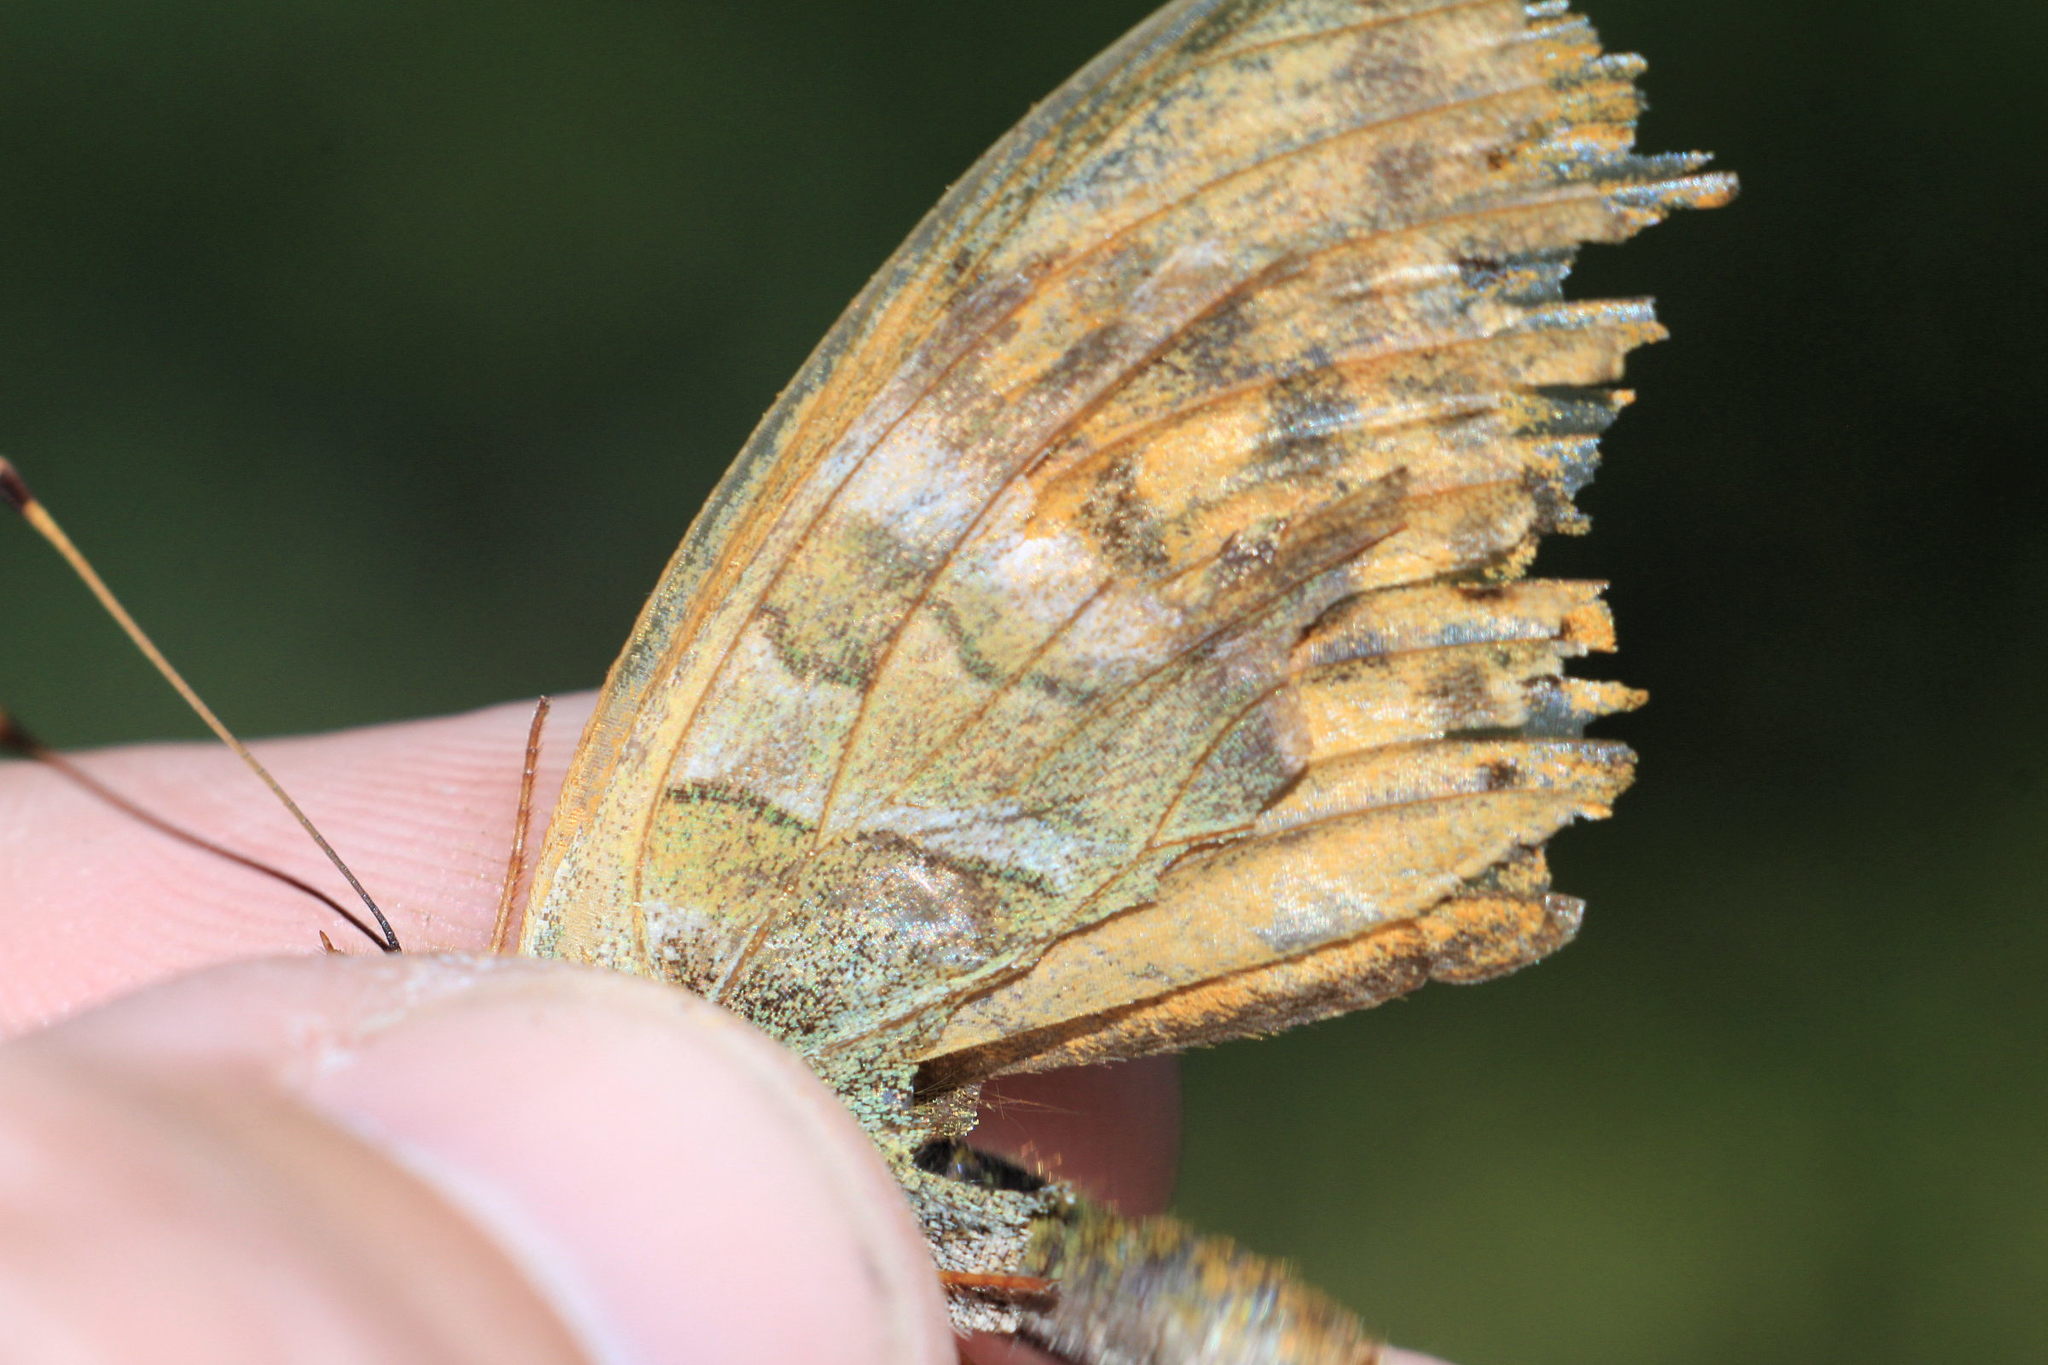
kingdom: Animalia
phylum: Arthropoda
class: Insecta
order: Lepidoptera
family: Nymphalidae
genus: Argynnis
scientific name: Argynnis paphia
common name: Silver-washed fritillary
